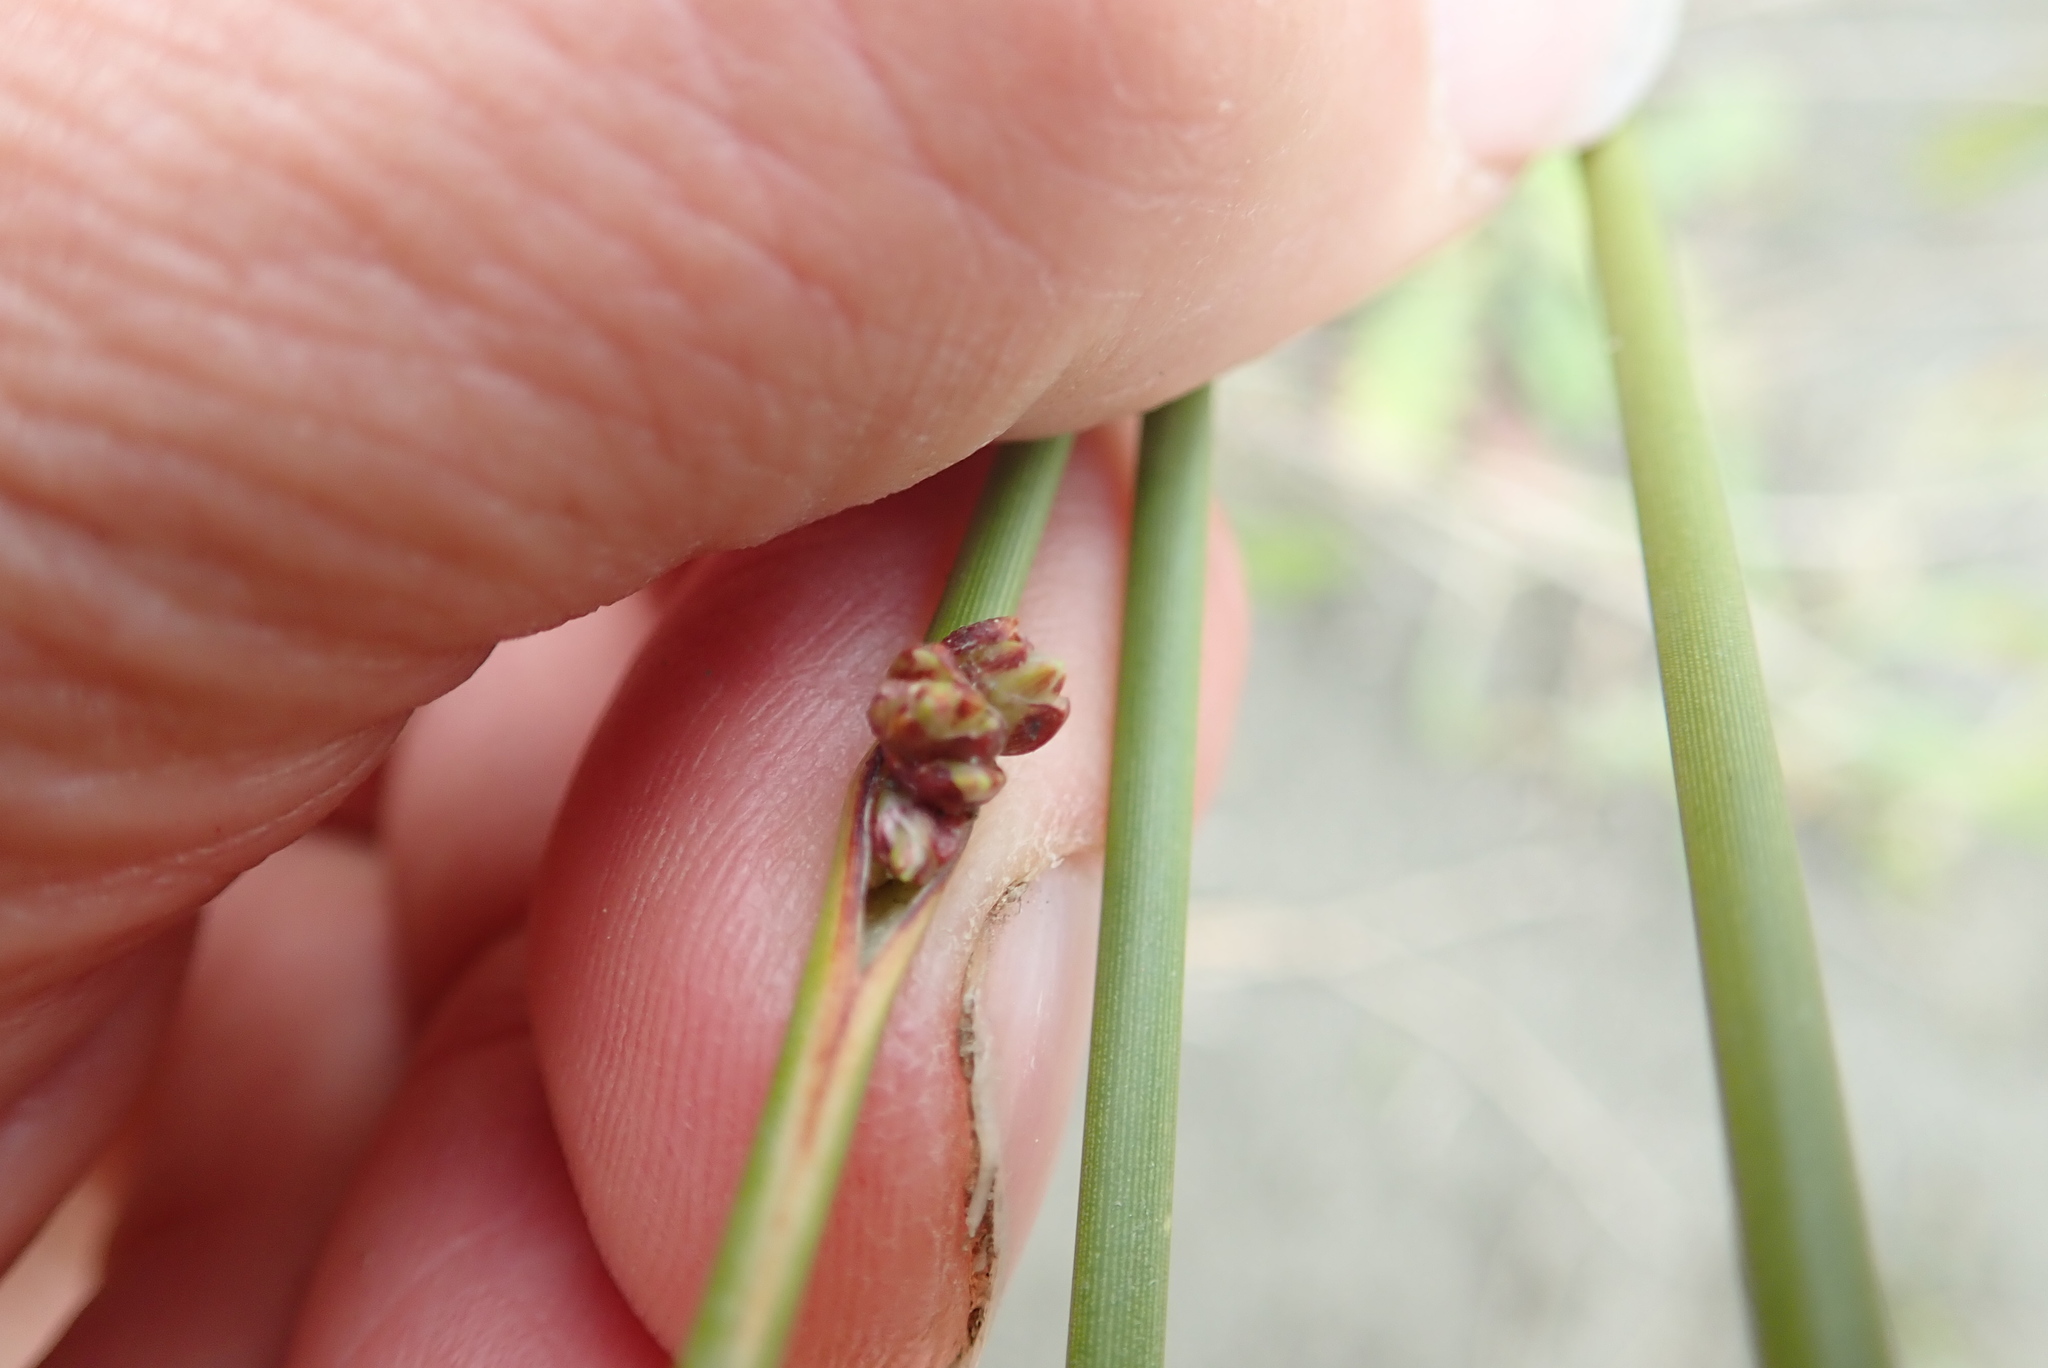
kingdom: Plantae
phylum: Tracheophyta
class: Liliopsida
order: Poales
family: Cyperaceae
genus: Ficinia
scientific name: Ficinia nodosa
